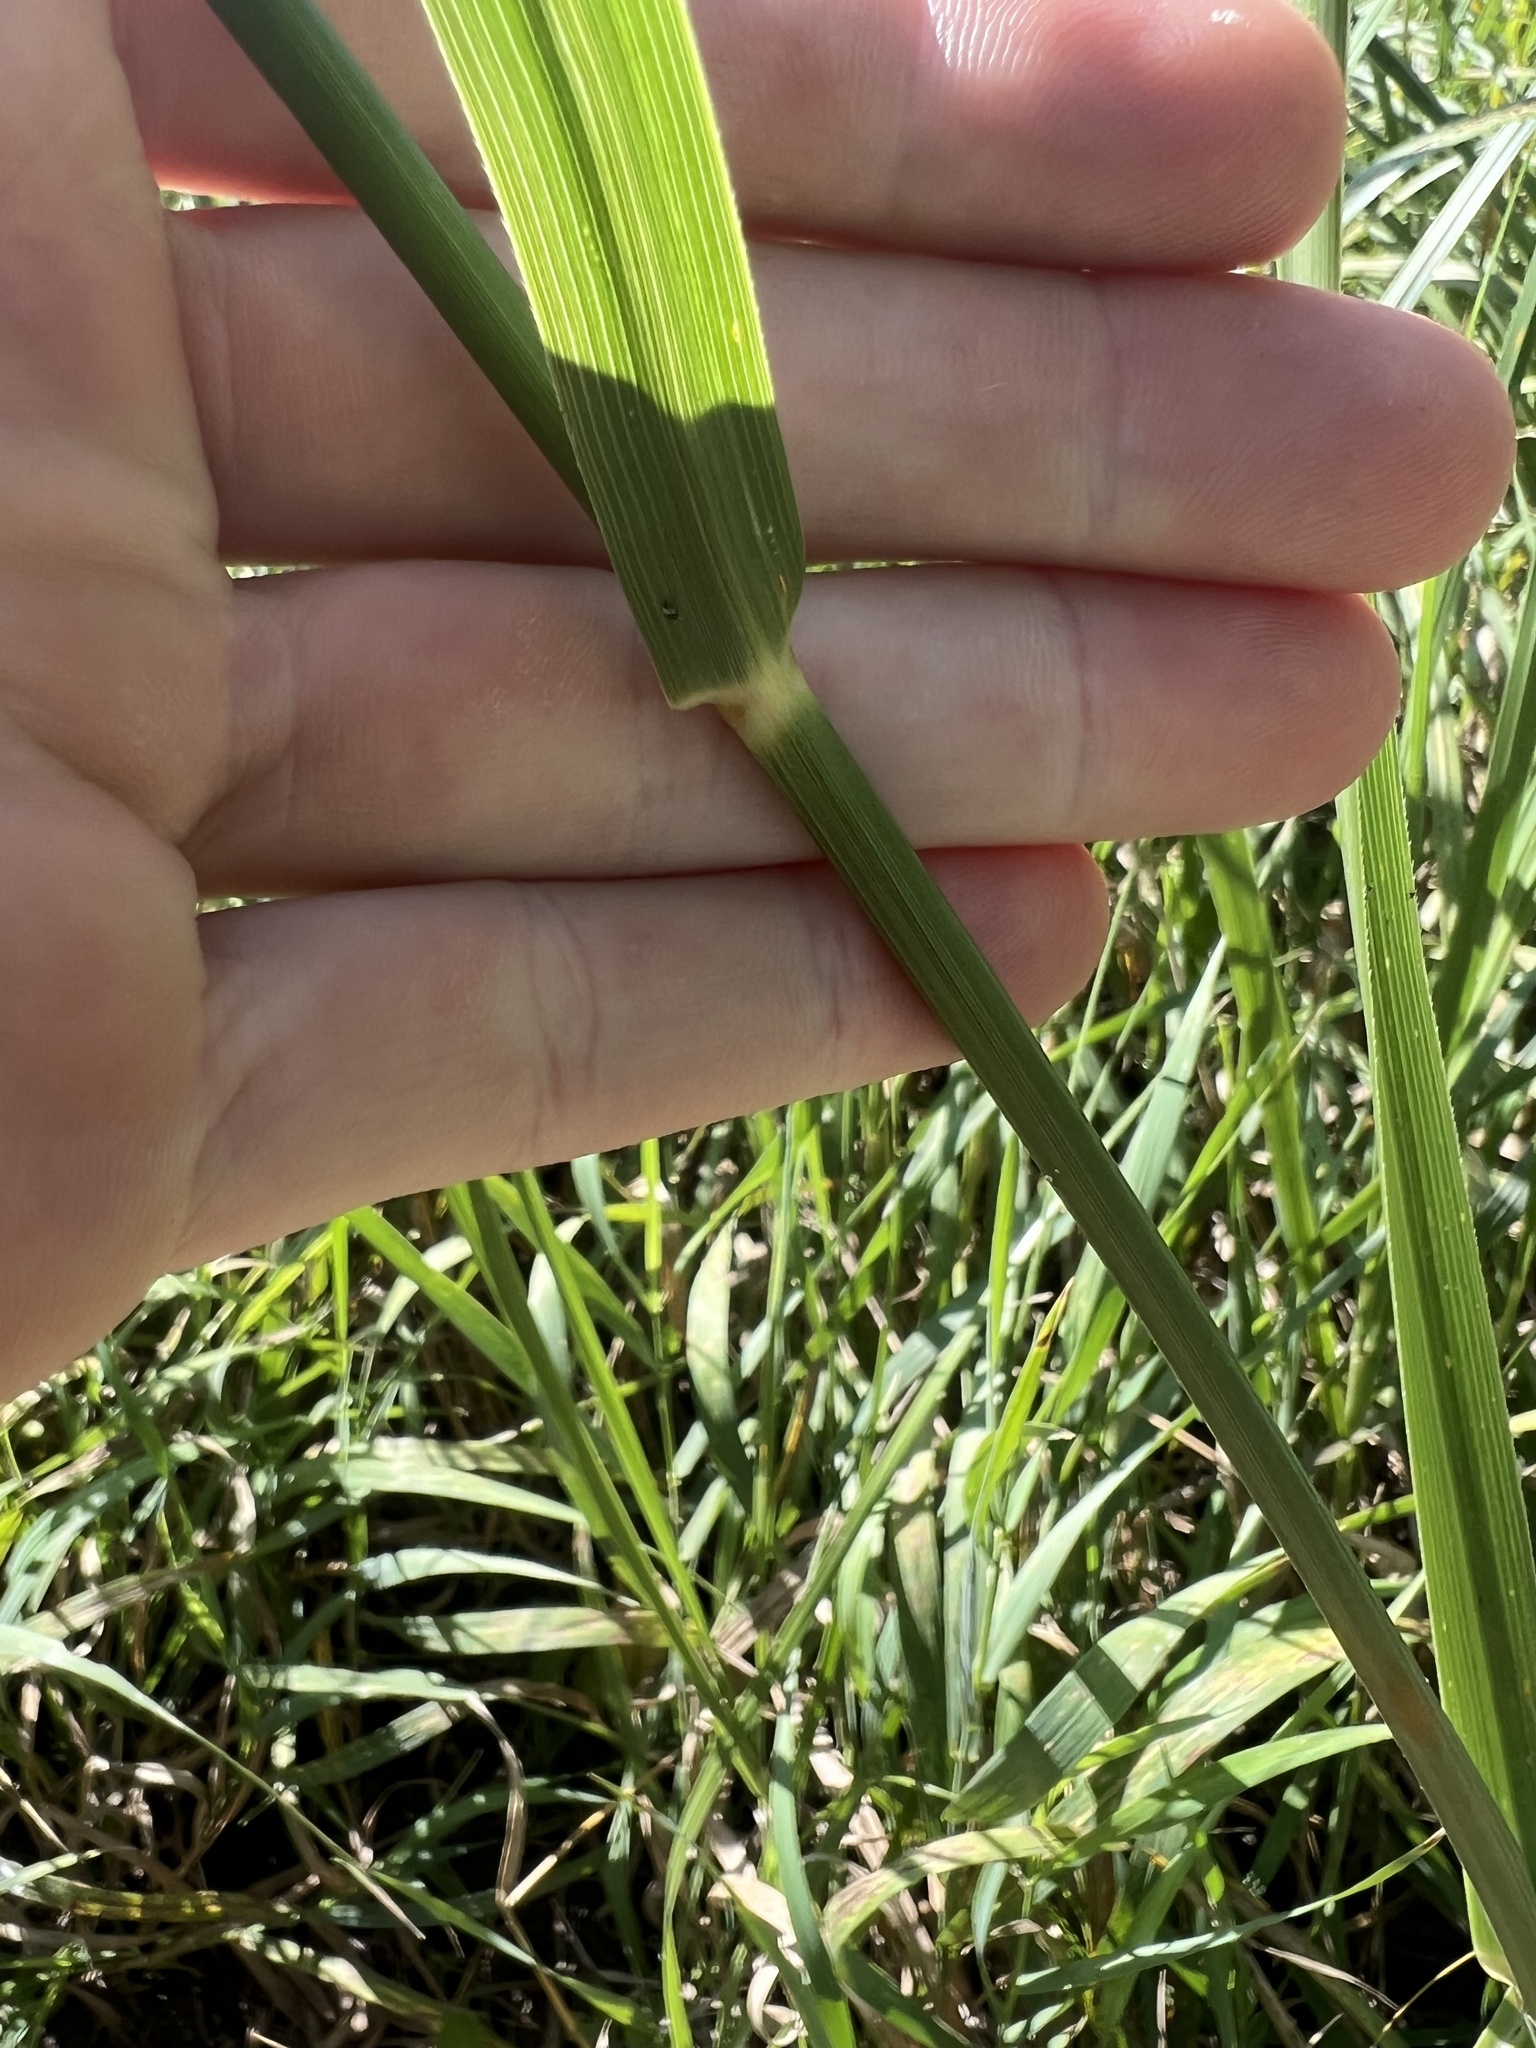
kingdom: Plantae
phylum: Tracheophyta
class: Liliopsida
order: Poales
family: Poaceae
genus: Sporobolus
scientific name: Sporobolus michauxianus
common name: Freshwater cordgrass
